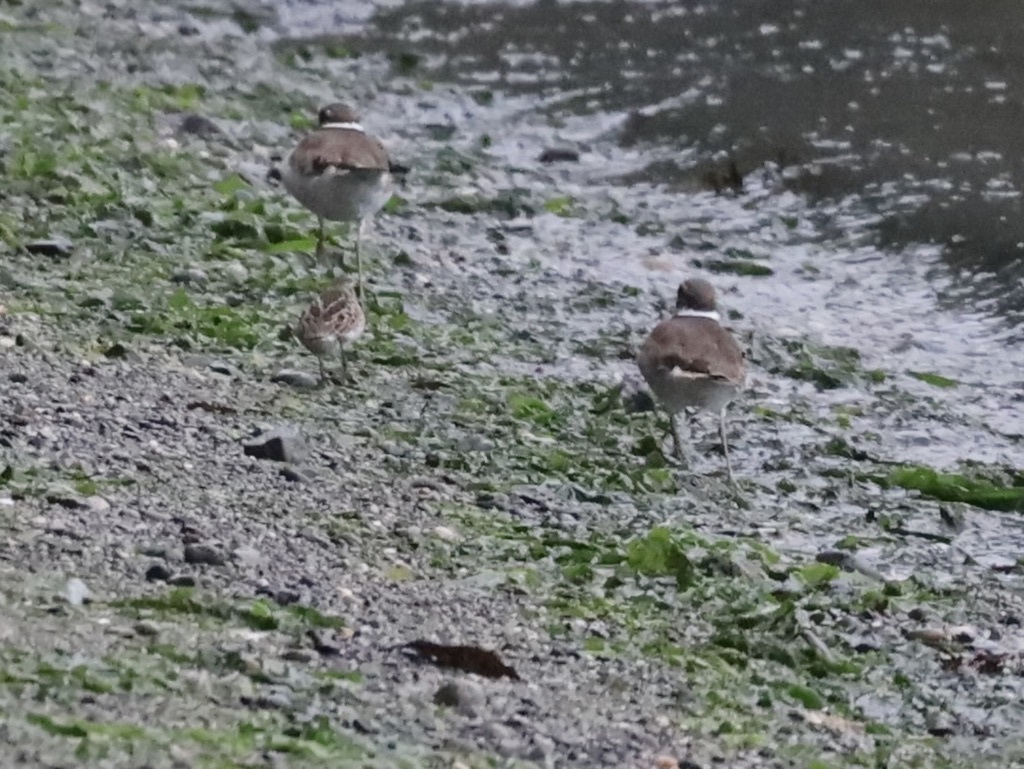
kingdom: Animalia
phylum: Chordata
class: Aves
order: Charadriiformes
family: Charadriidae
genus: Charadrius
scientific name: Charadrius vociferus
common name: Killdeer
